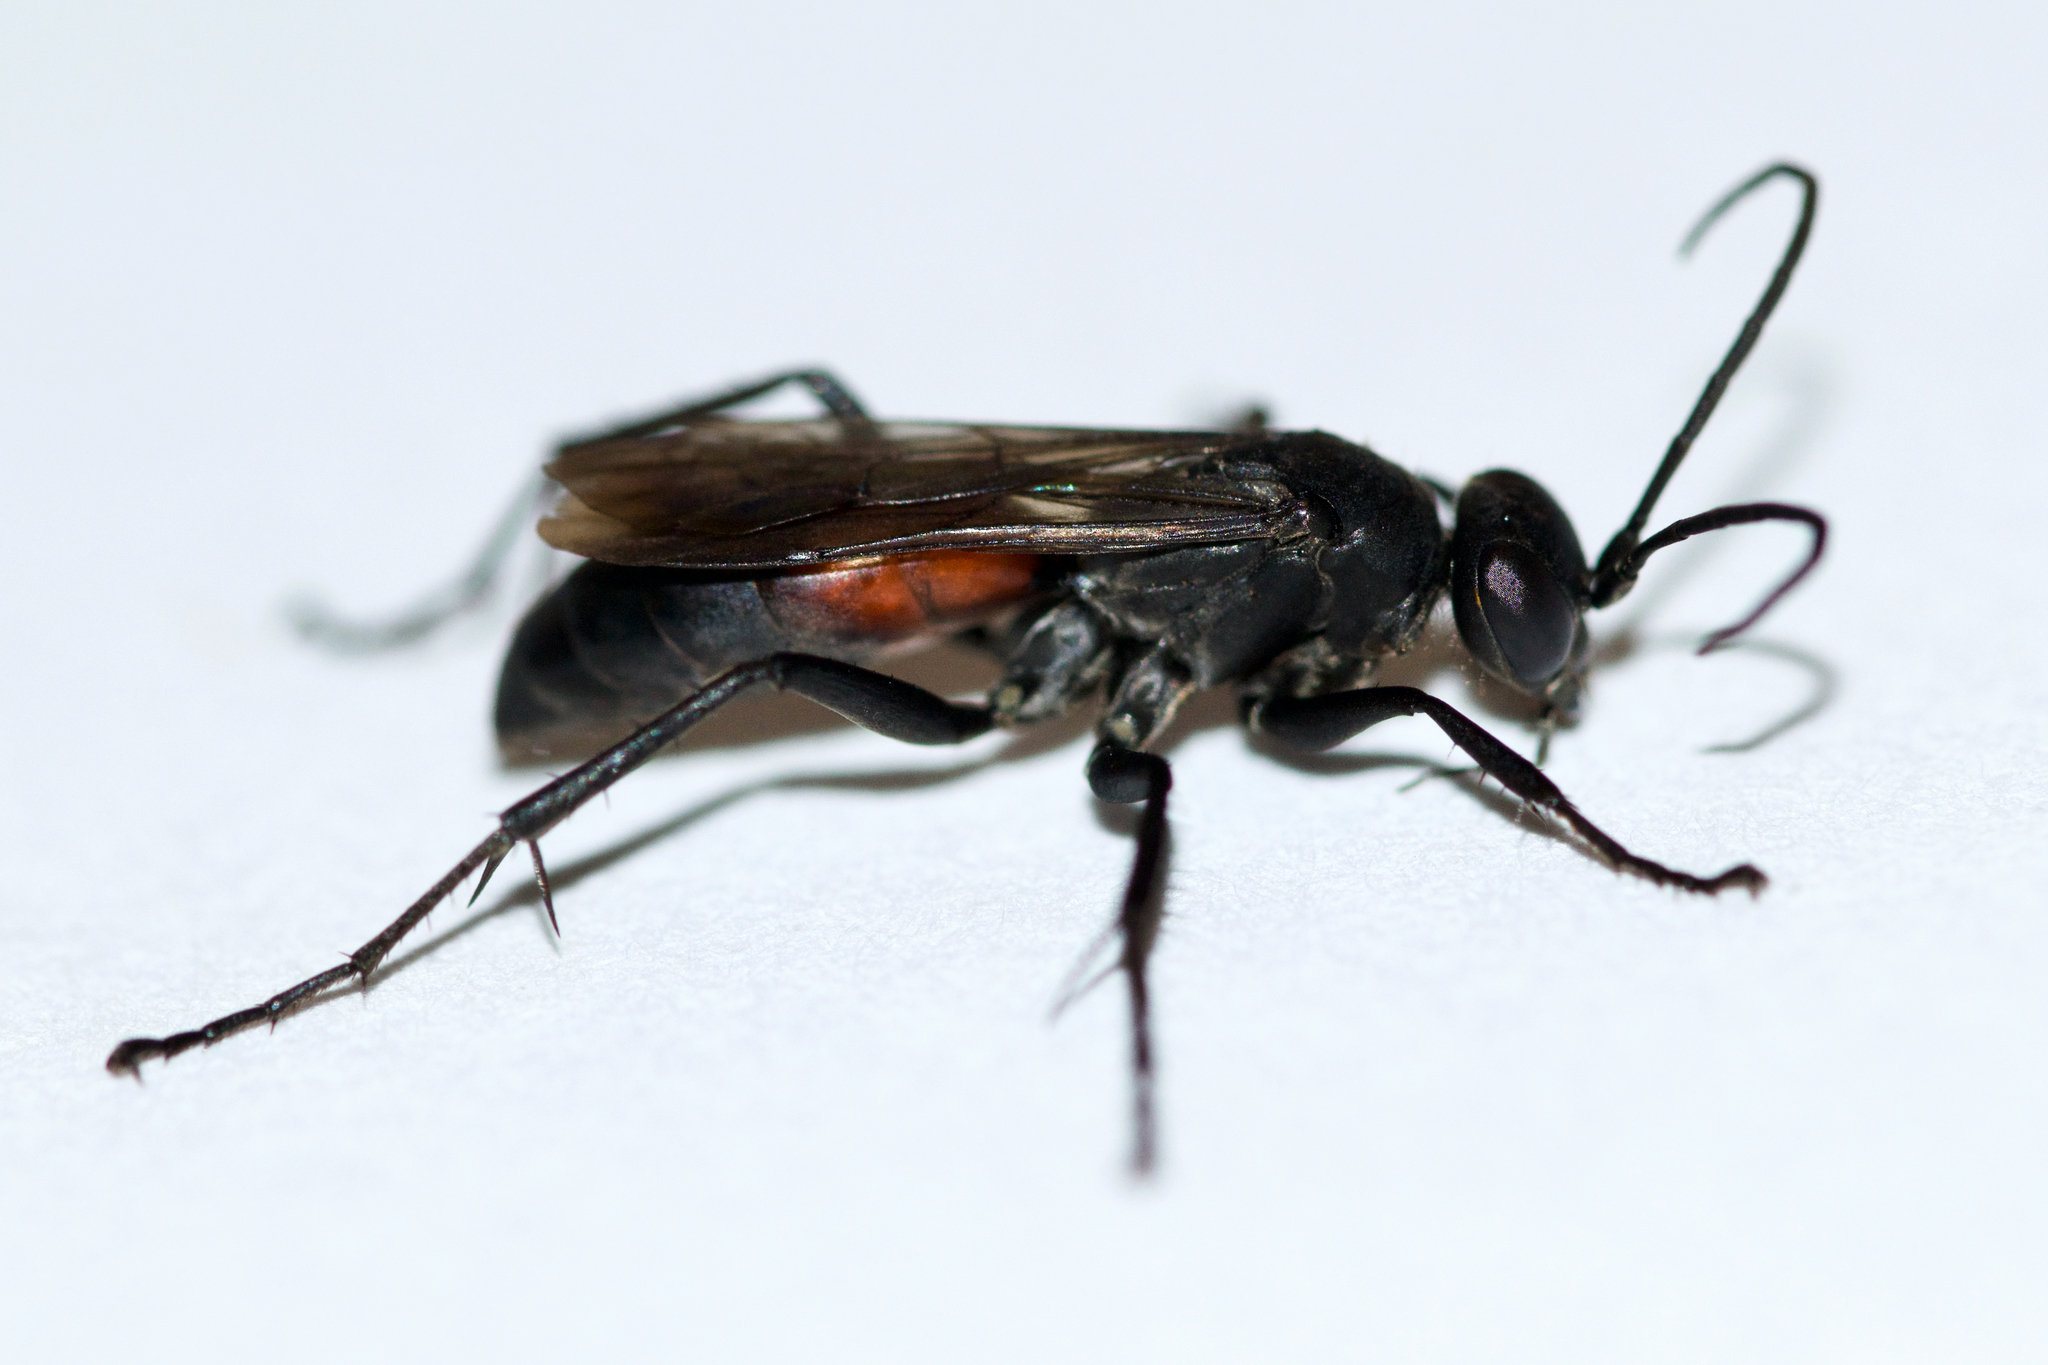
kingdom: Animalia
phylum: Arthropoda
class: Insecta
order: Hymenoptera
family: Pompilidae
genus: Ammosphex
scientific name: Ammosphex michiganensis
